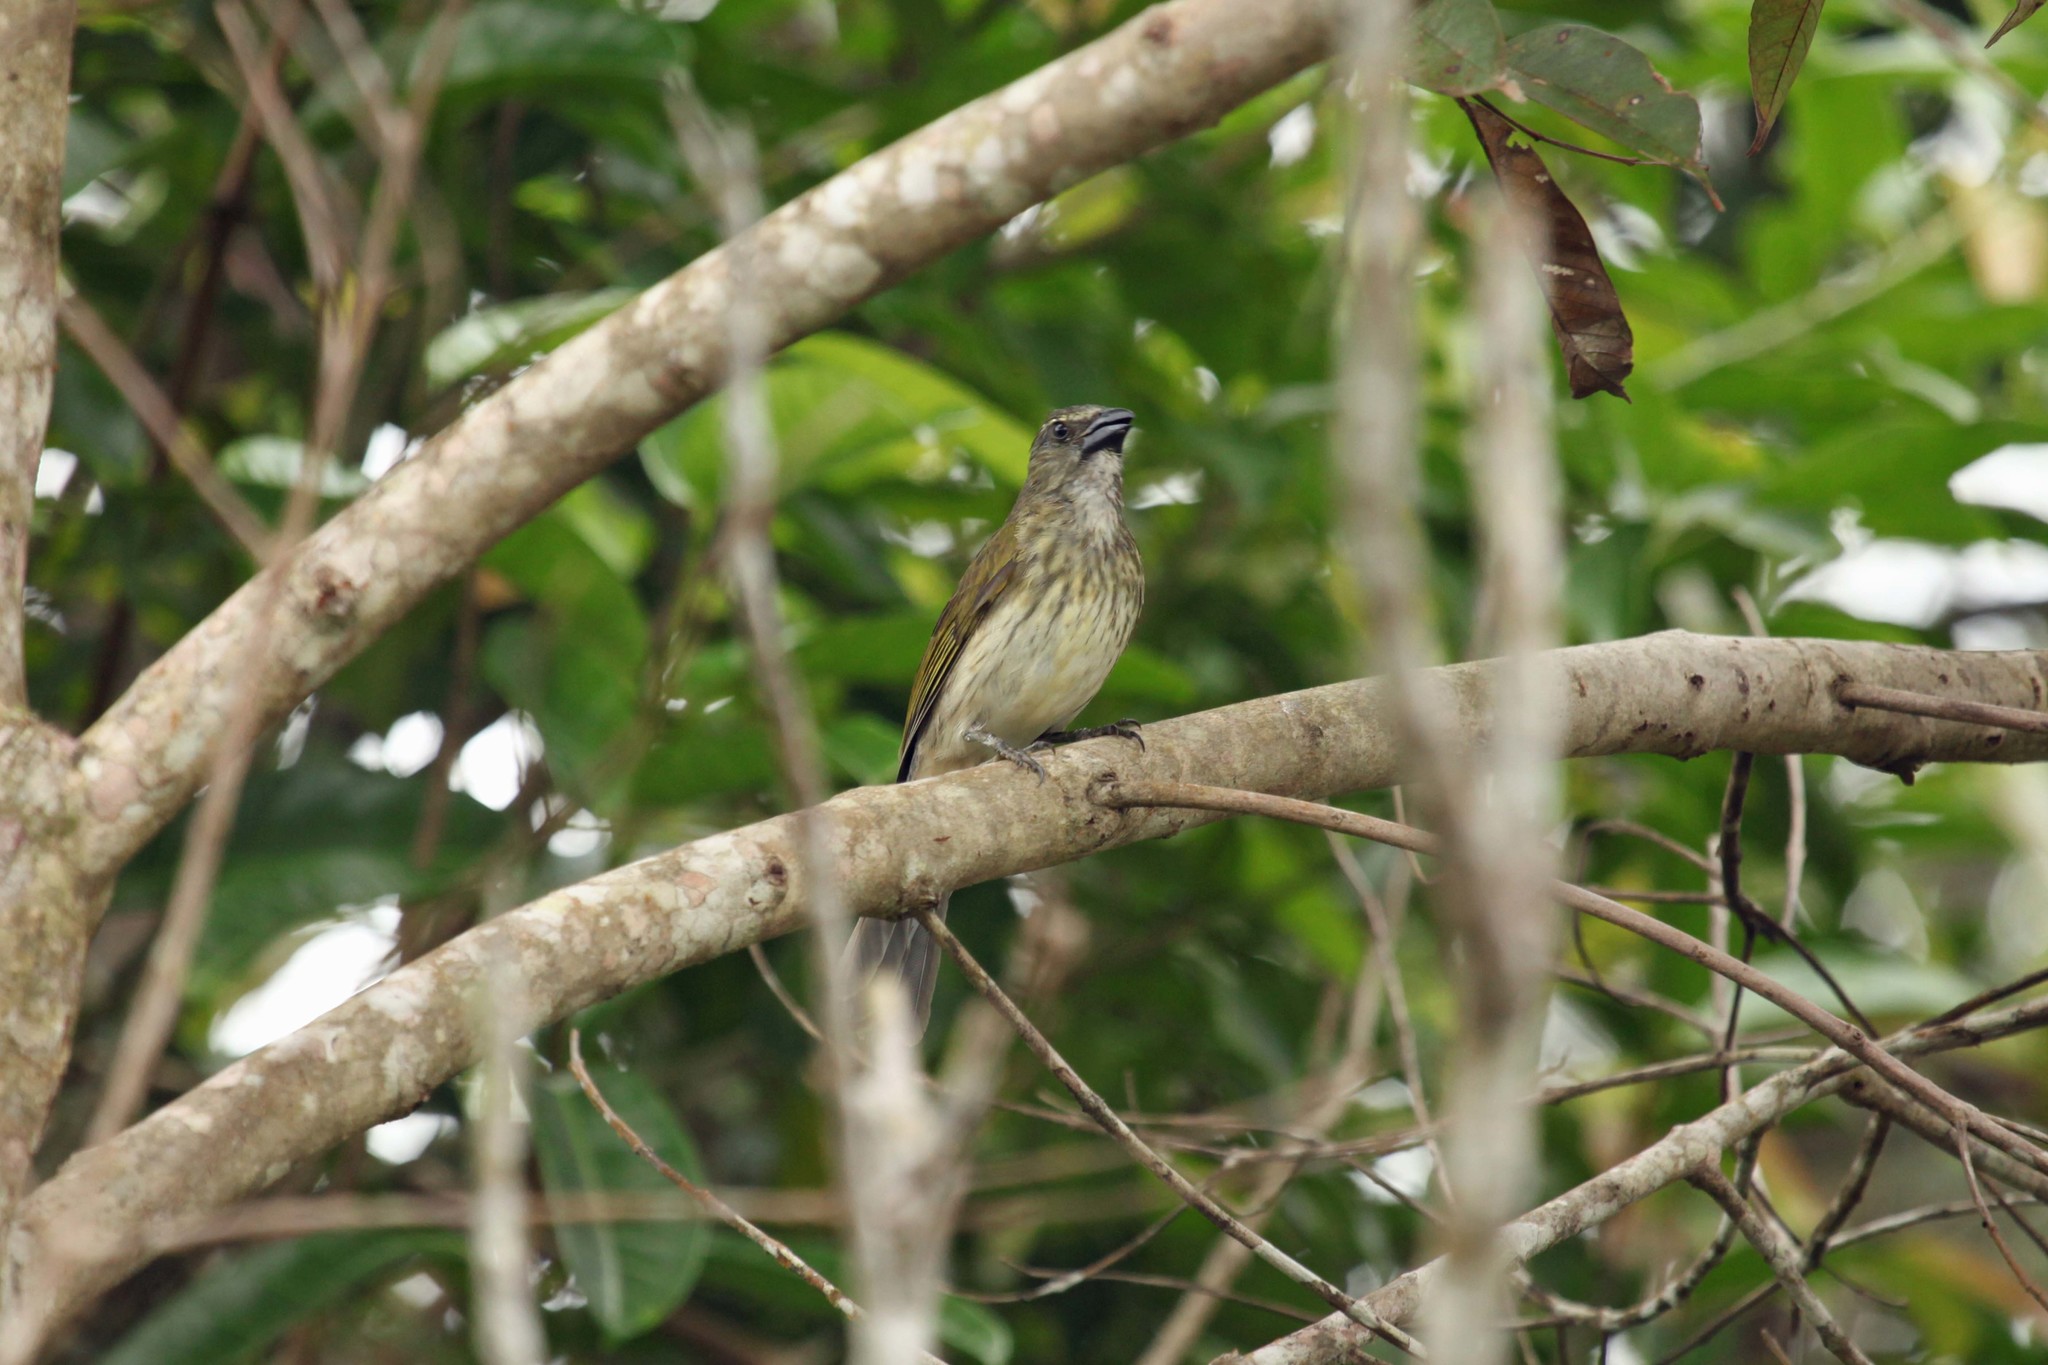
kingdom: Animalia
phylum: Chordata
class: Aves
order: Passeriformes
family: Thraupidae
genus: Saltator
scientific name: Saltator striatipectus
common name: Streaked saltator
